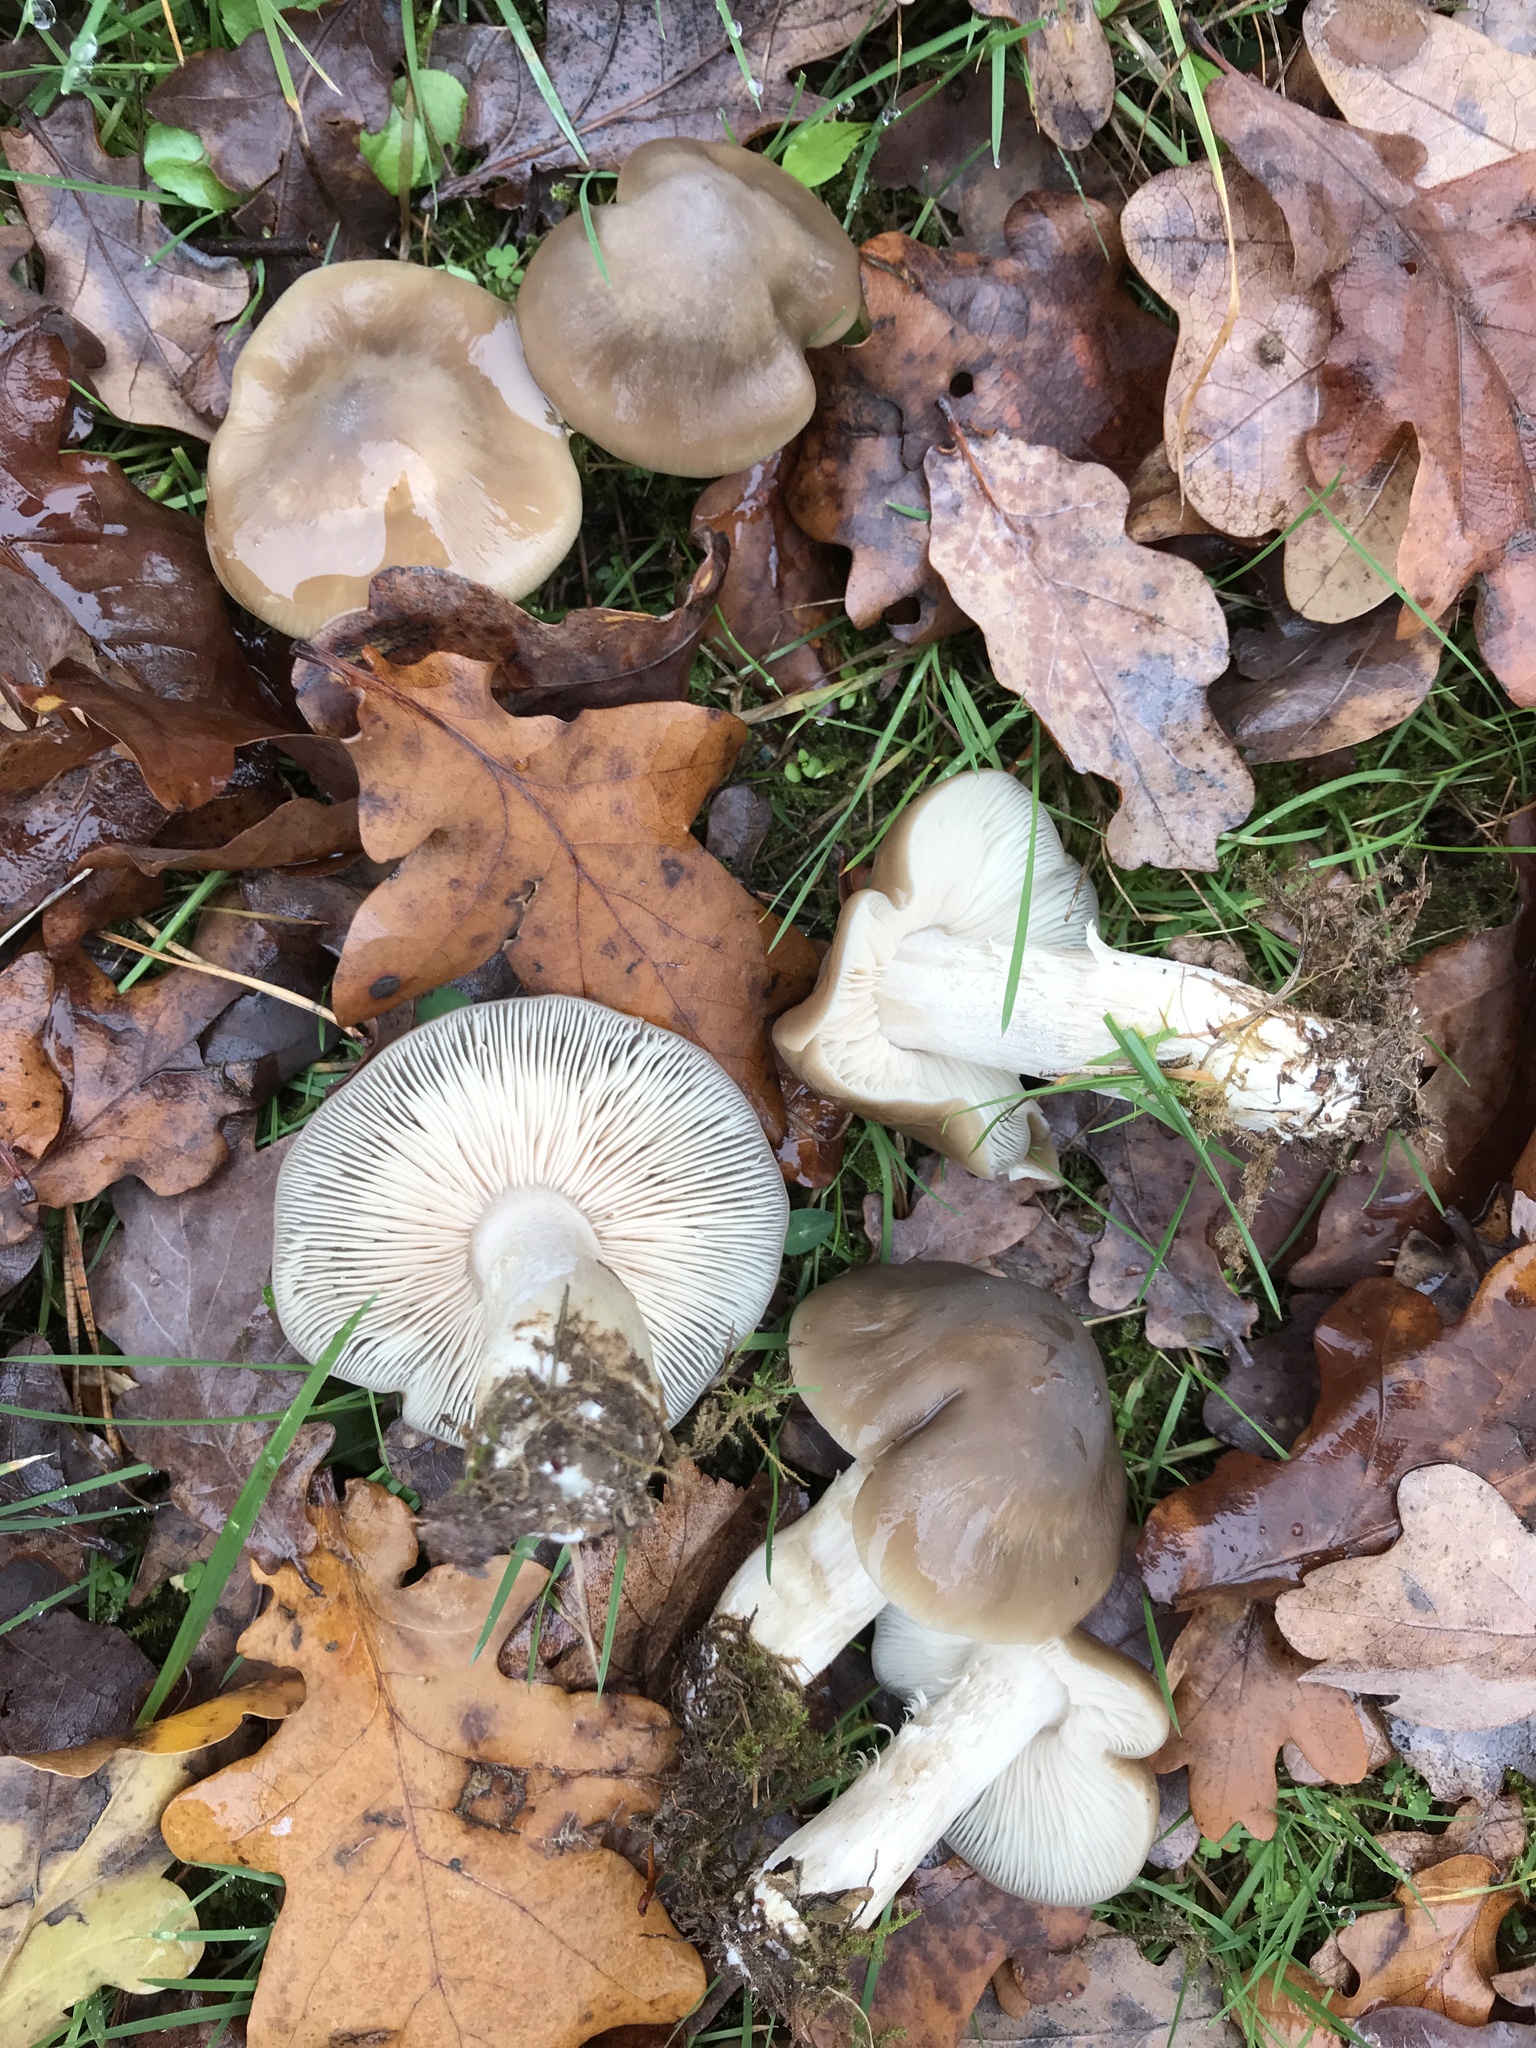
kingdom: Fungi
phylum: Basidiomycota
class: Agaricomycetes
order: Agaricales
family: Entolomataceae
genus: Entoloma
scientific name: Entoloma lividoalbum
